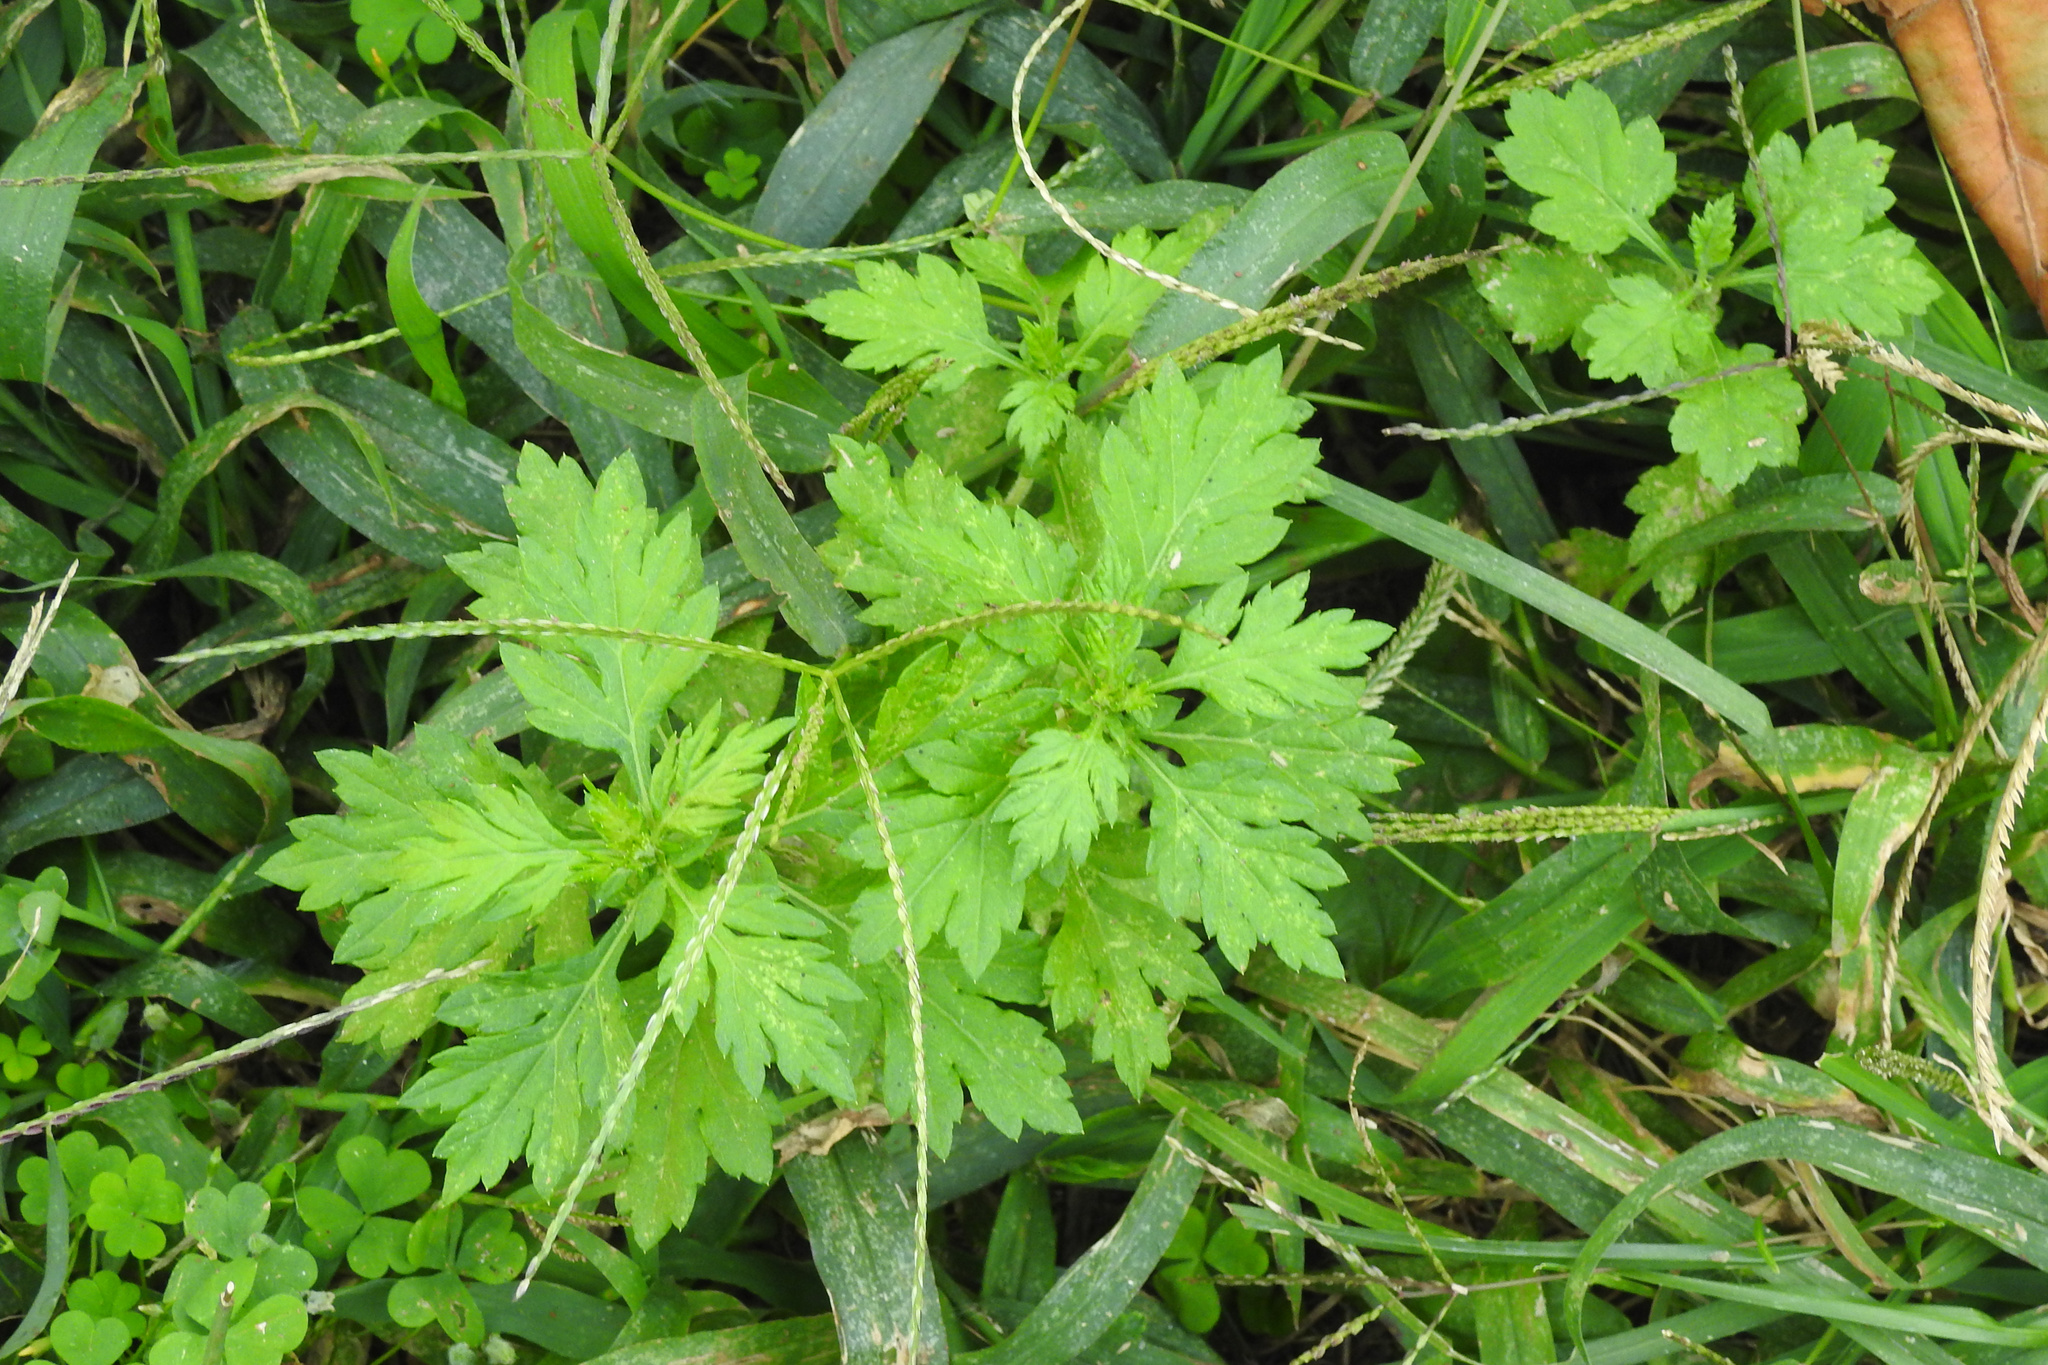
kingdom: Plantae
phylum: Tracheophyta
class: Magnoliopsida
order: Asterales
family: Asteraceae
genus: Artemisia
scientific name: Artemisia vulgaris
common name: Mugwort
